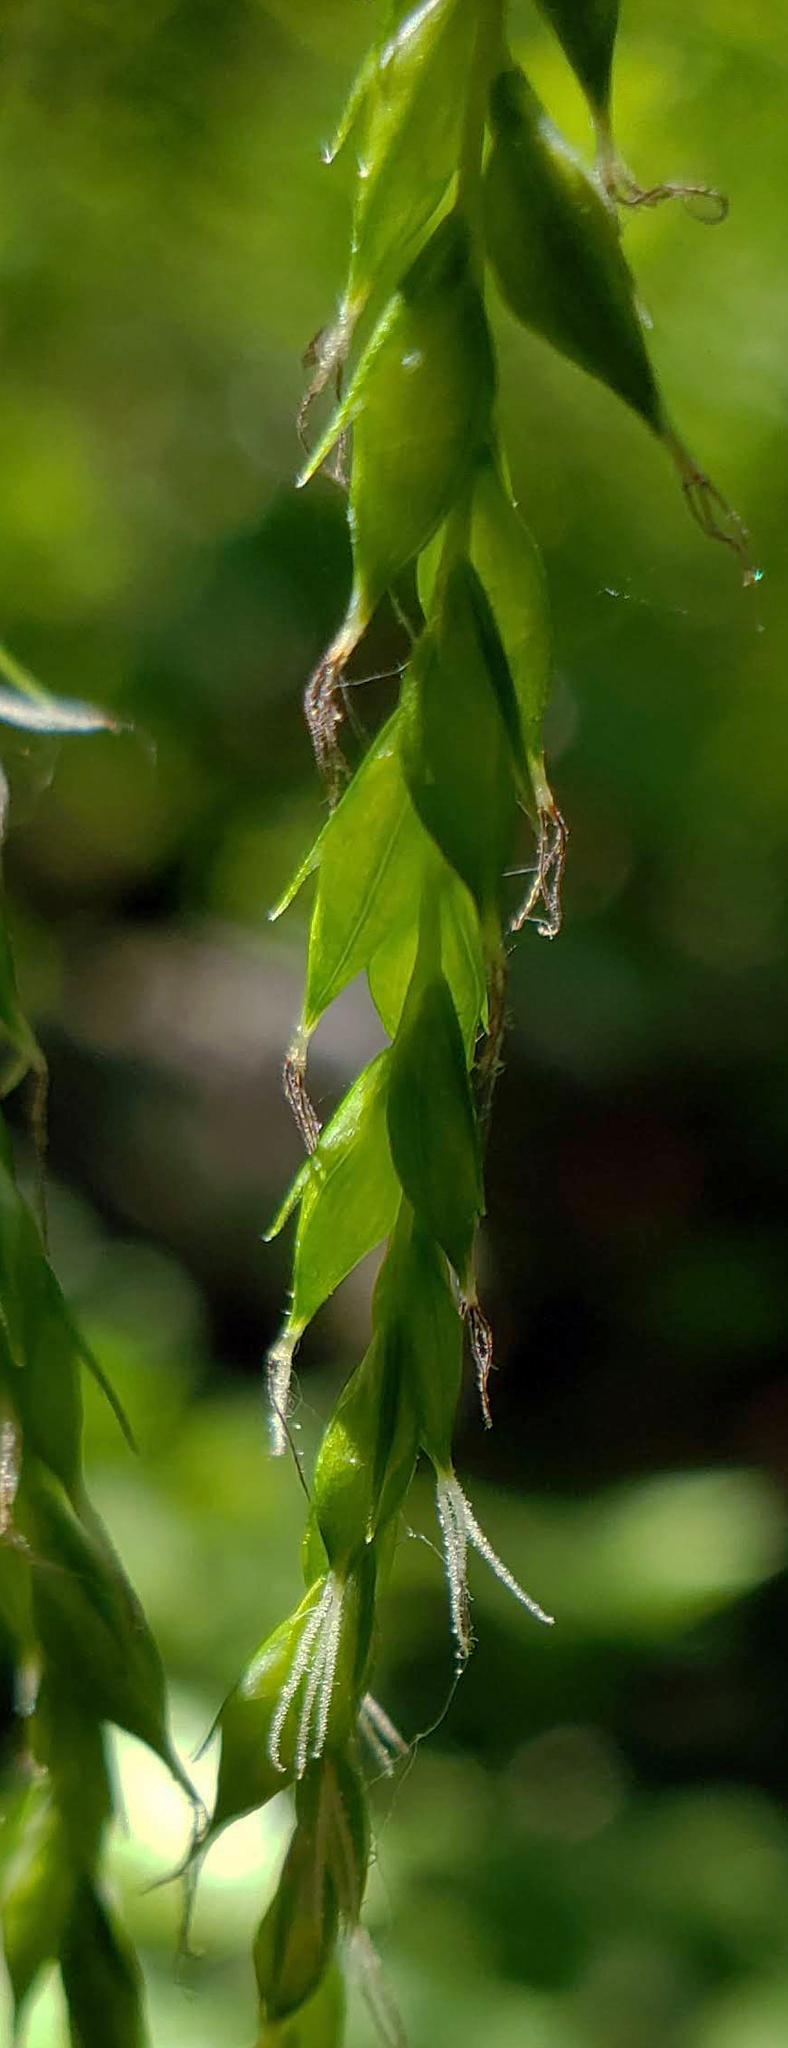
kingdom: Plantae
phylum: Tracheophyta
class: Liliopsida
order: Poales
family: Cyperaceae
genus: Carex
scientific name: Carex arctata
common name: Black sedge
